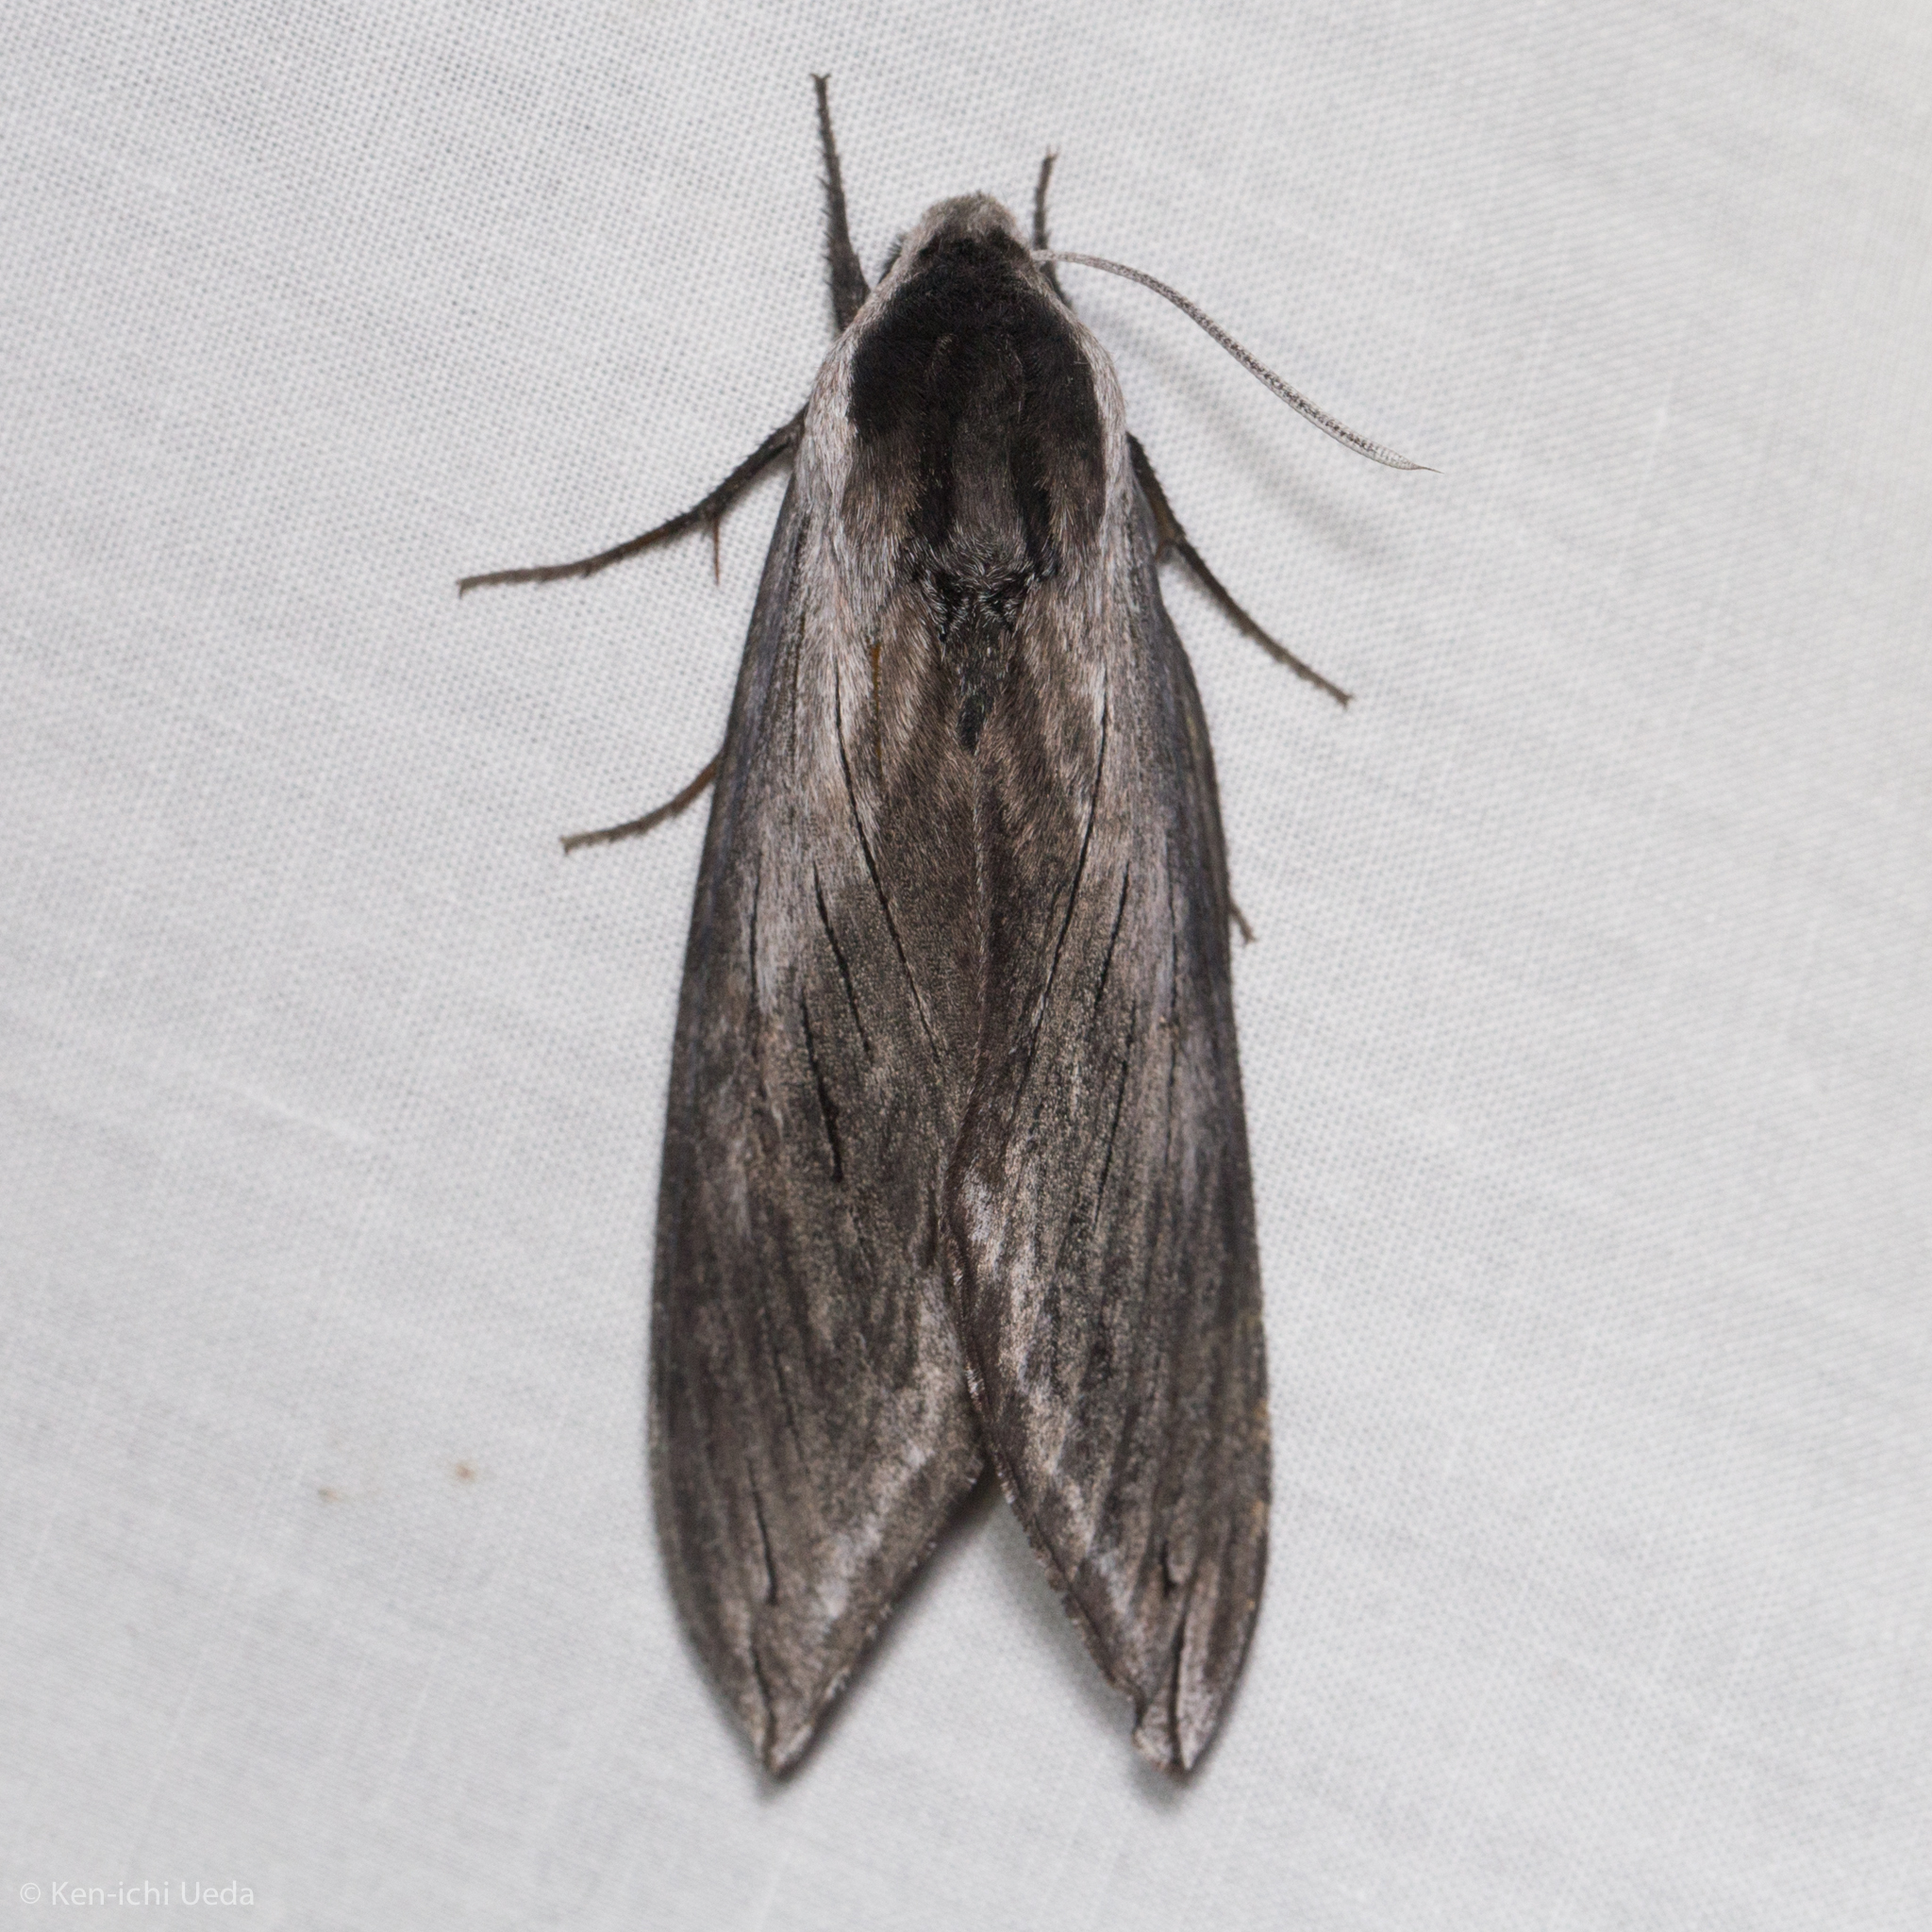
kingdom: Animalia
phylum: Arthropoda
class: Insecta
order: Lepidoptera
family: Sphingidae
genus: Sphinx
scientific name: Sphinx perelegans
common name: Elegant sphinx
